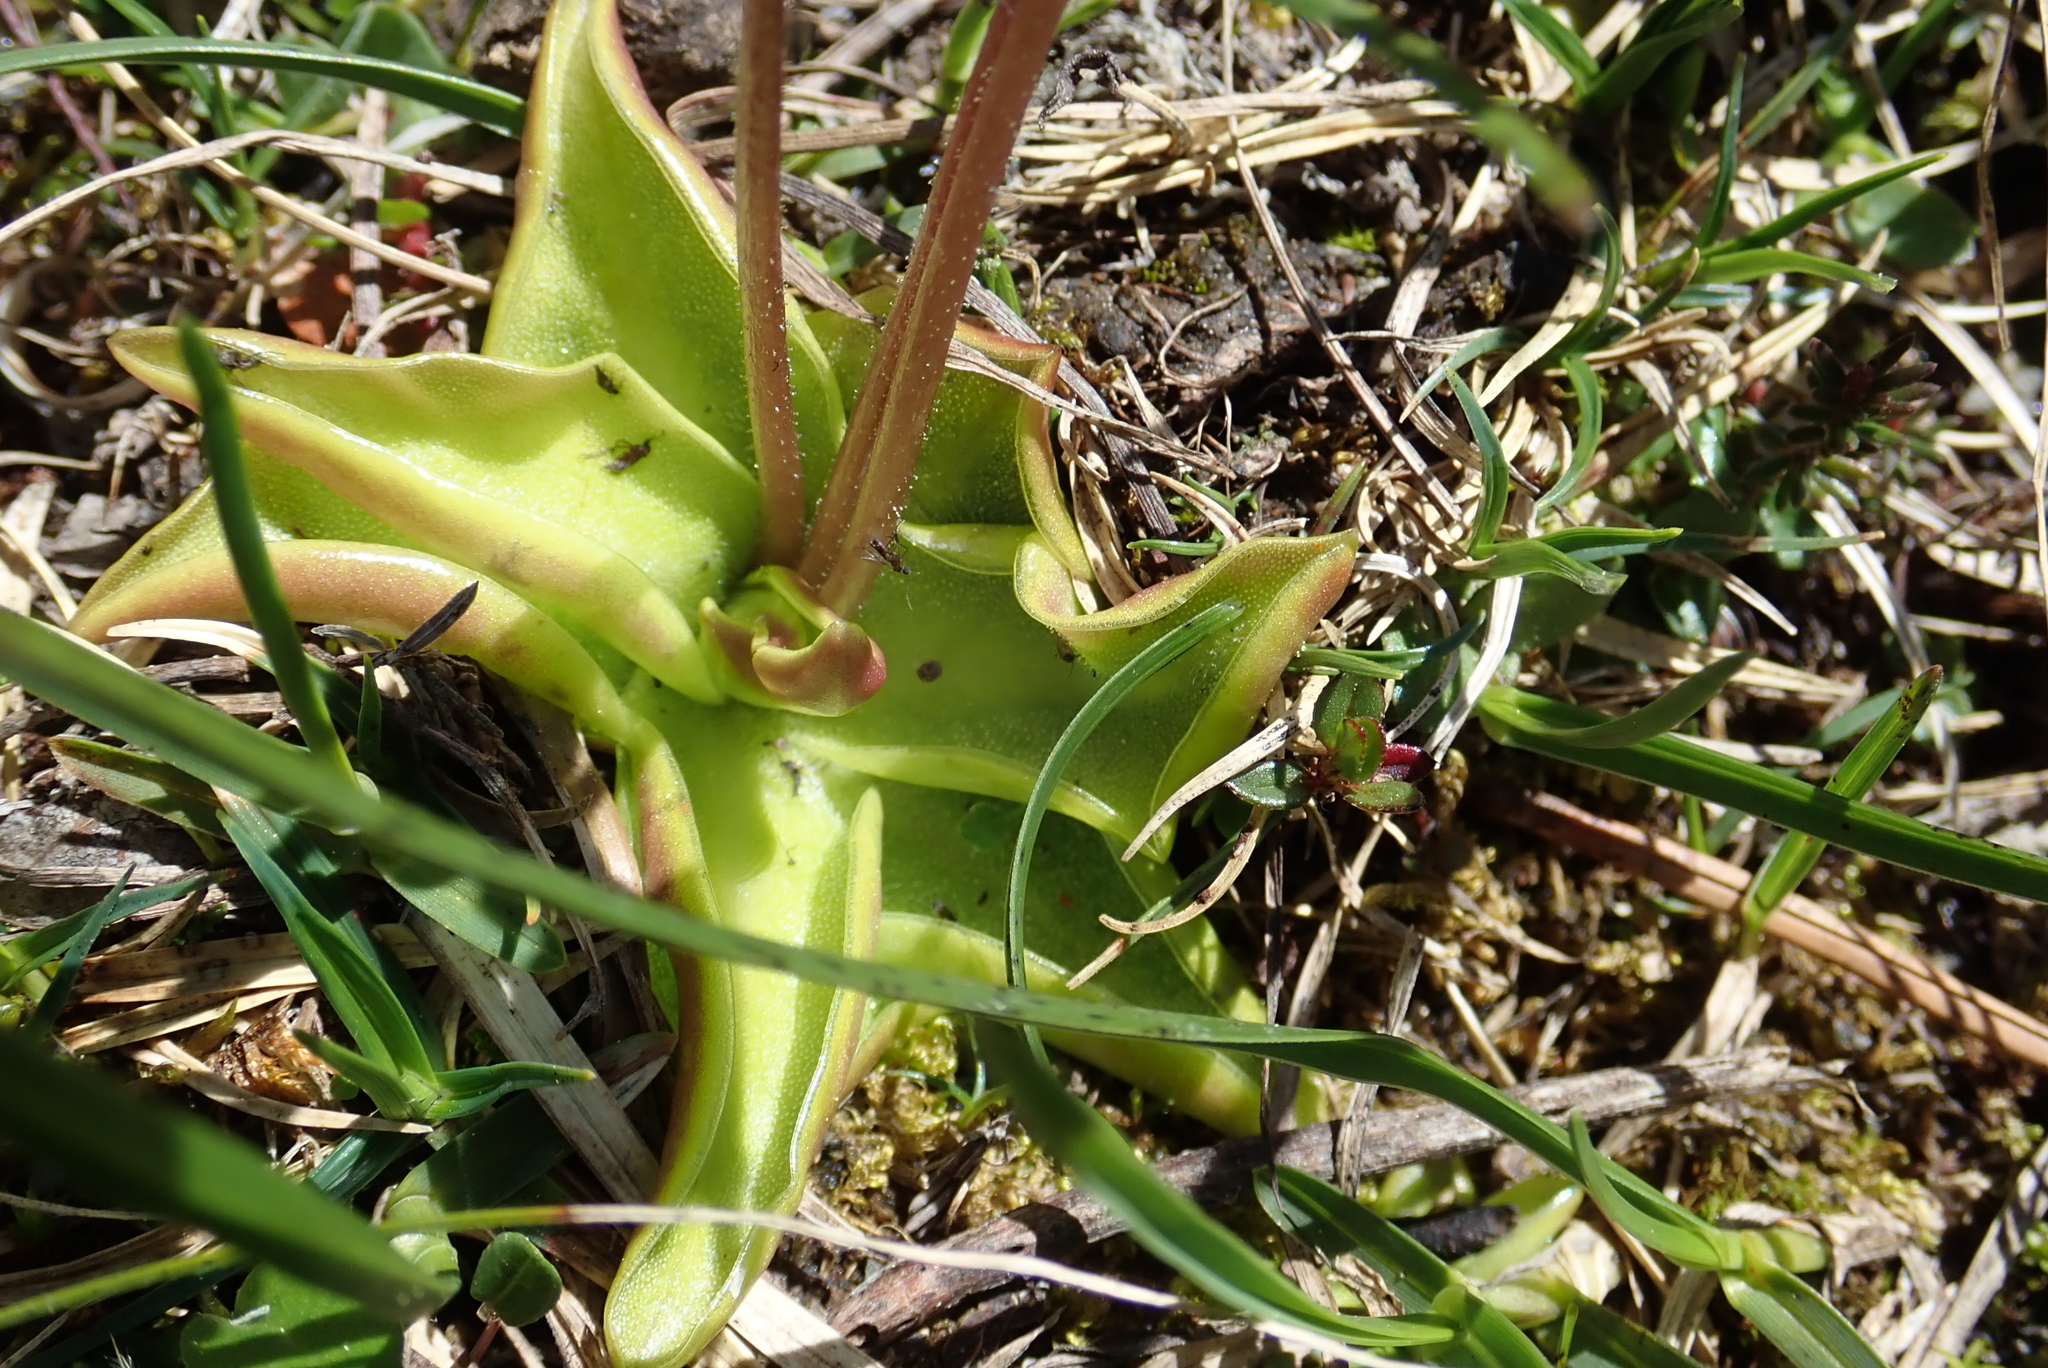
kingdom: Plantae
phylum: Tracheophyta
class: Magnoliopsida
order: Lamiales
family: Lentibulariaceae
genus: Pinguicula
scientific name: Pinguicula alpina
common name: Alpine butterwort
